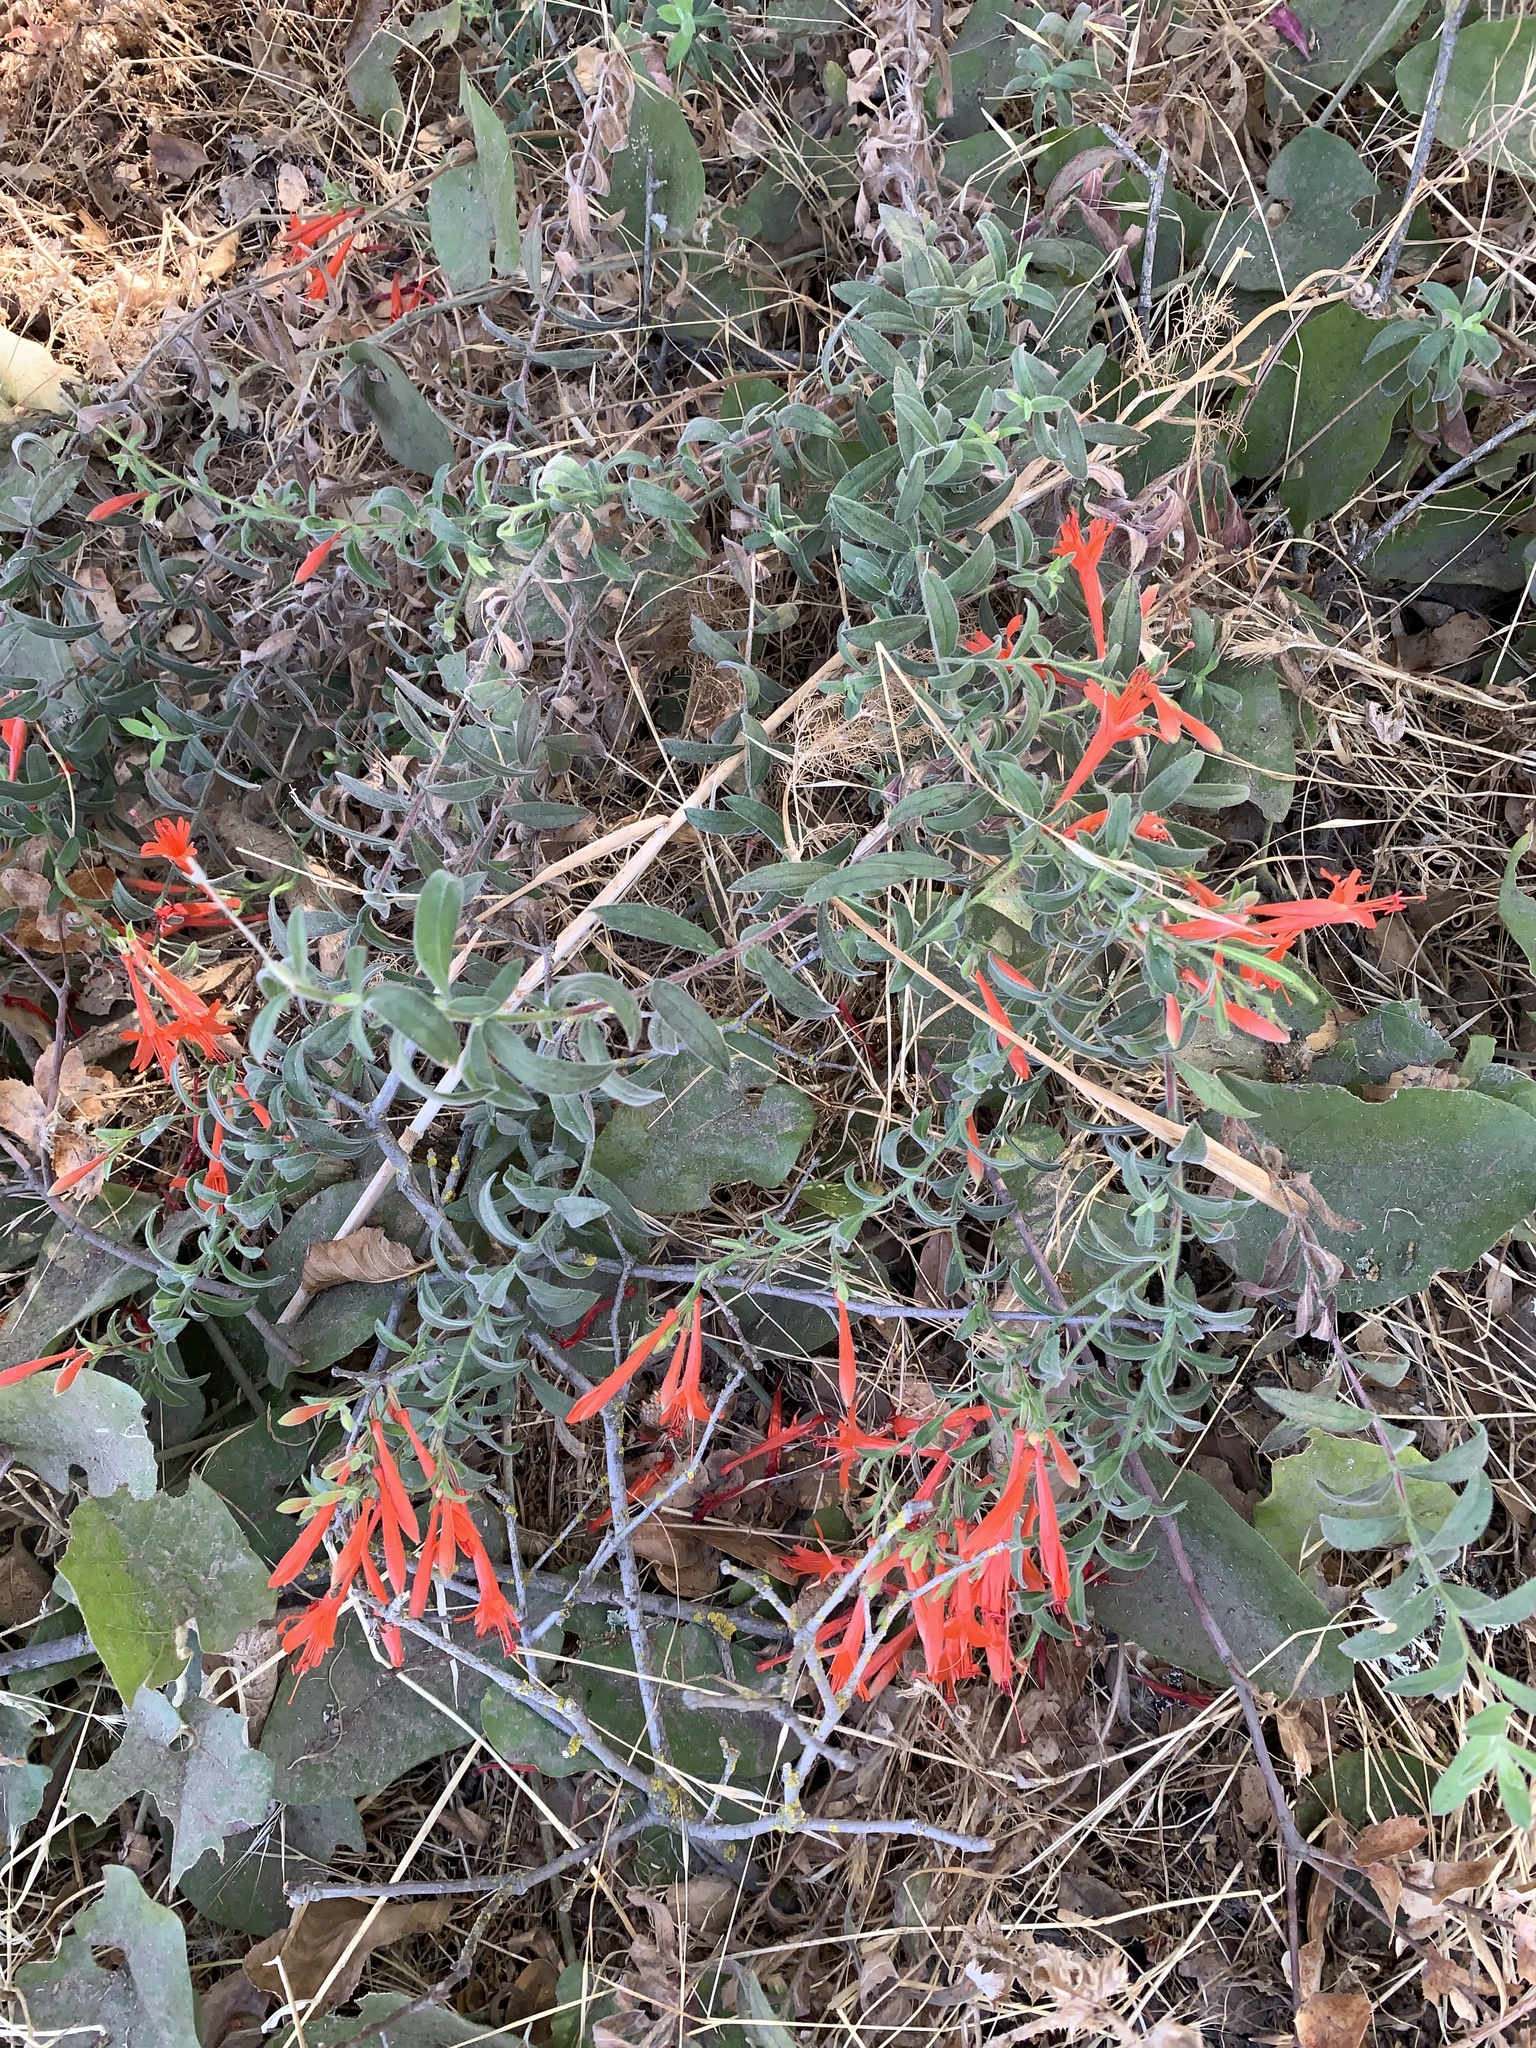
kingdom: Plantae
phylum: Tracheophyta
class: Magnoliopsida
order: Myrtales
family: Onagraceae
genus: Epilobium
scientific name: Epilobium canum
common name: California-fuchsia
